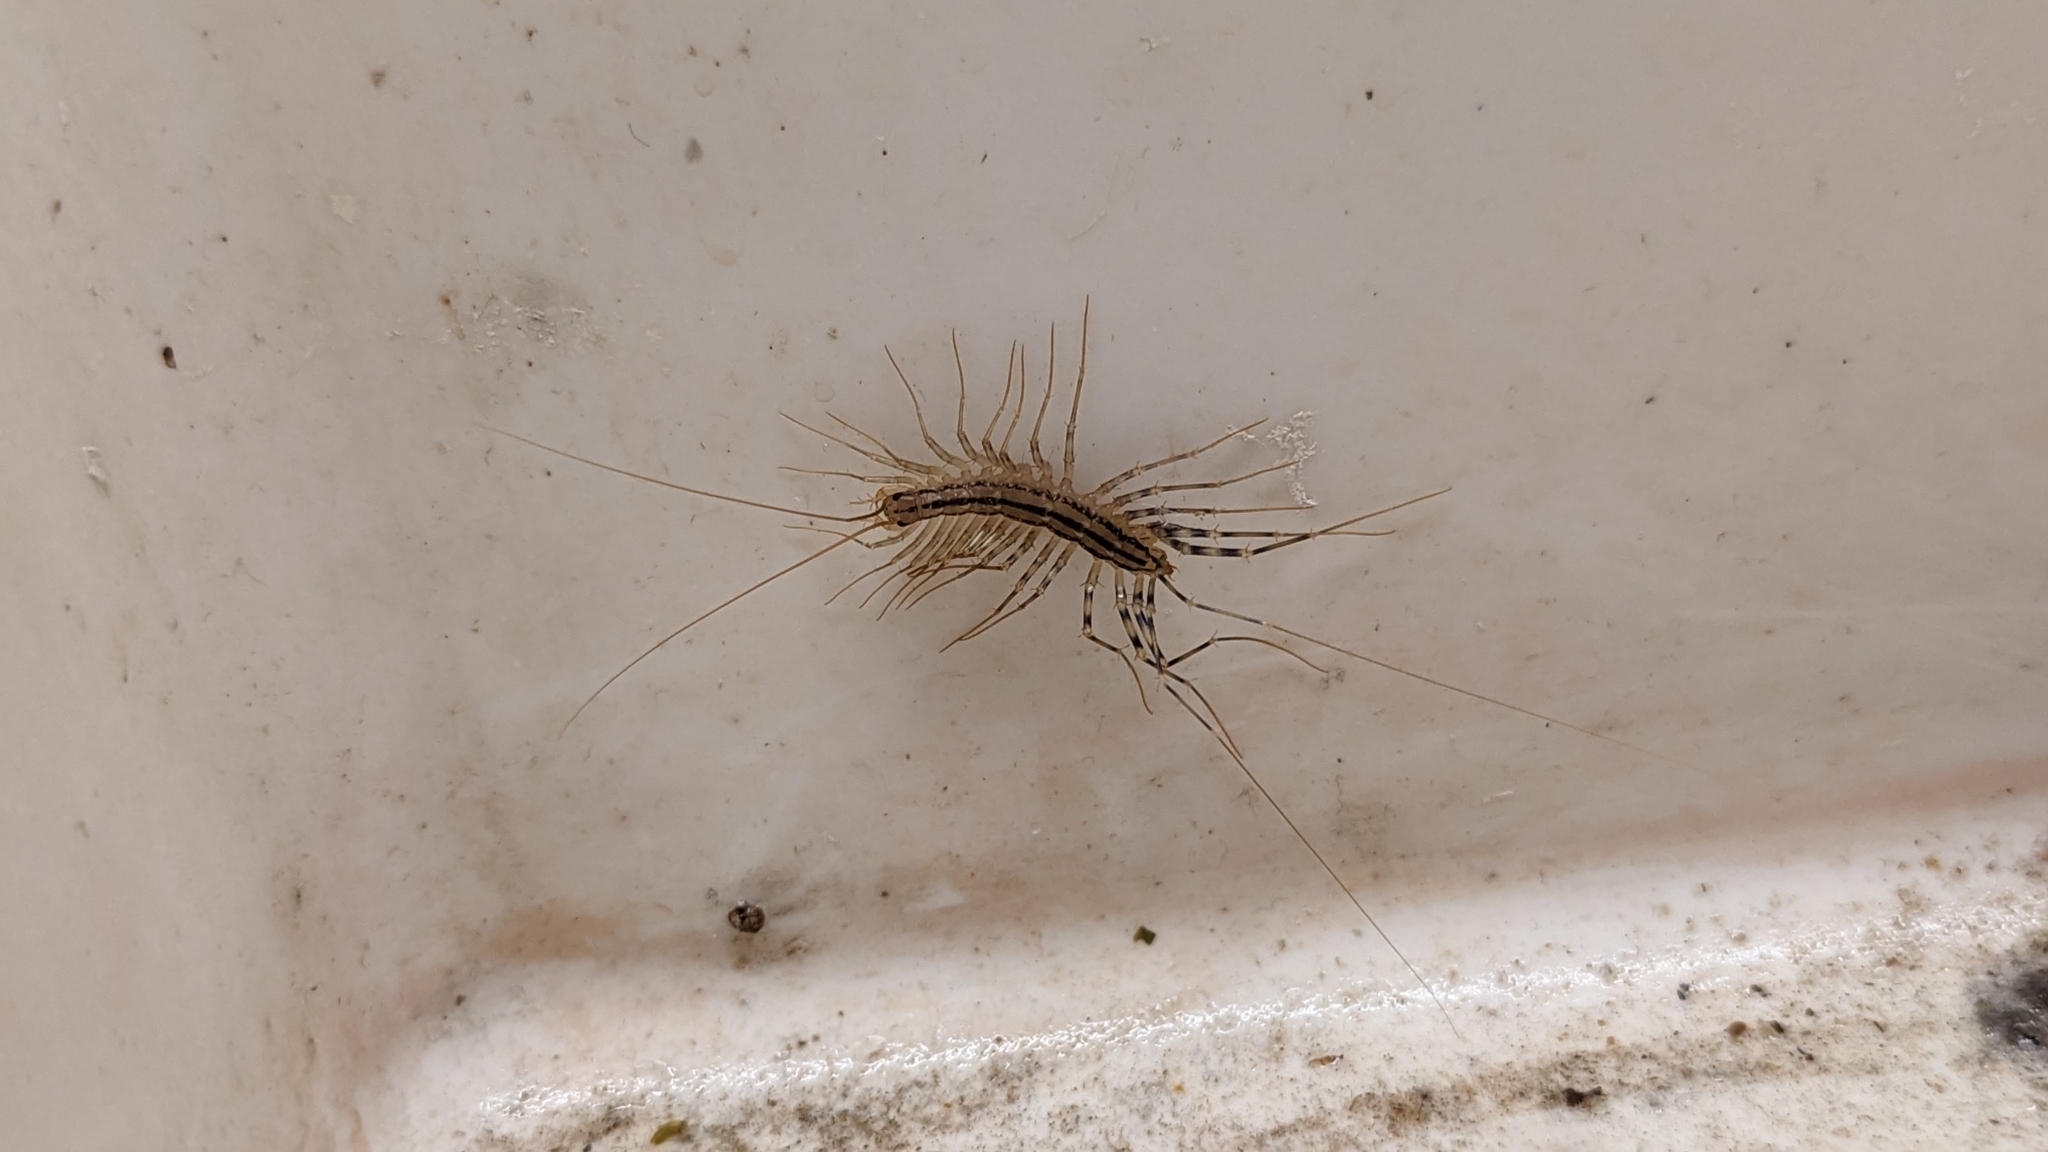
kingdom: Animalia
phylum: Arthropoda
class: Chilopoda
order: Scutigeromorpha
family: Scutigeridae
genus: Scutigera
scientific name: Scutigera coleoptrata
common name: House centipede
